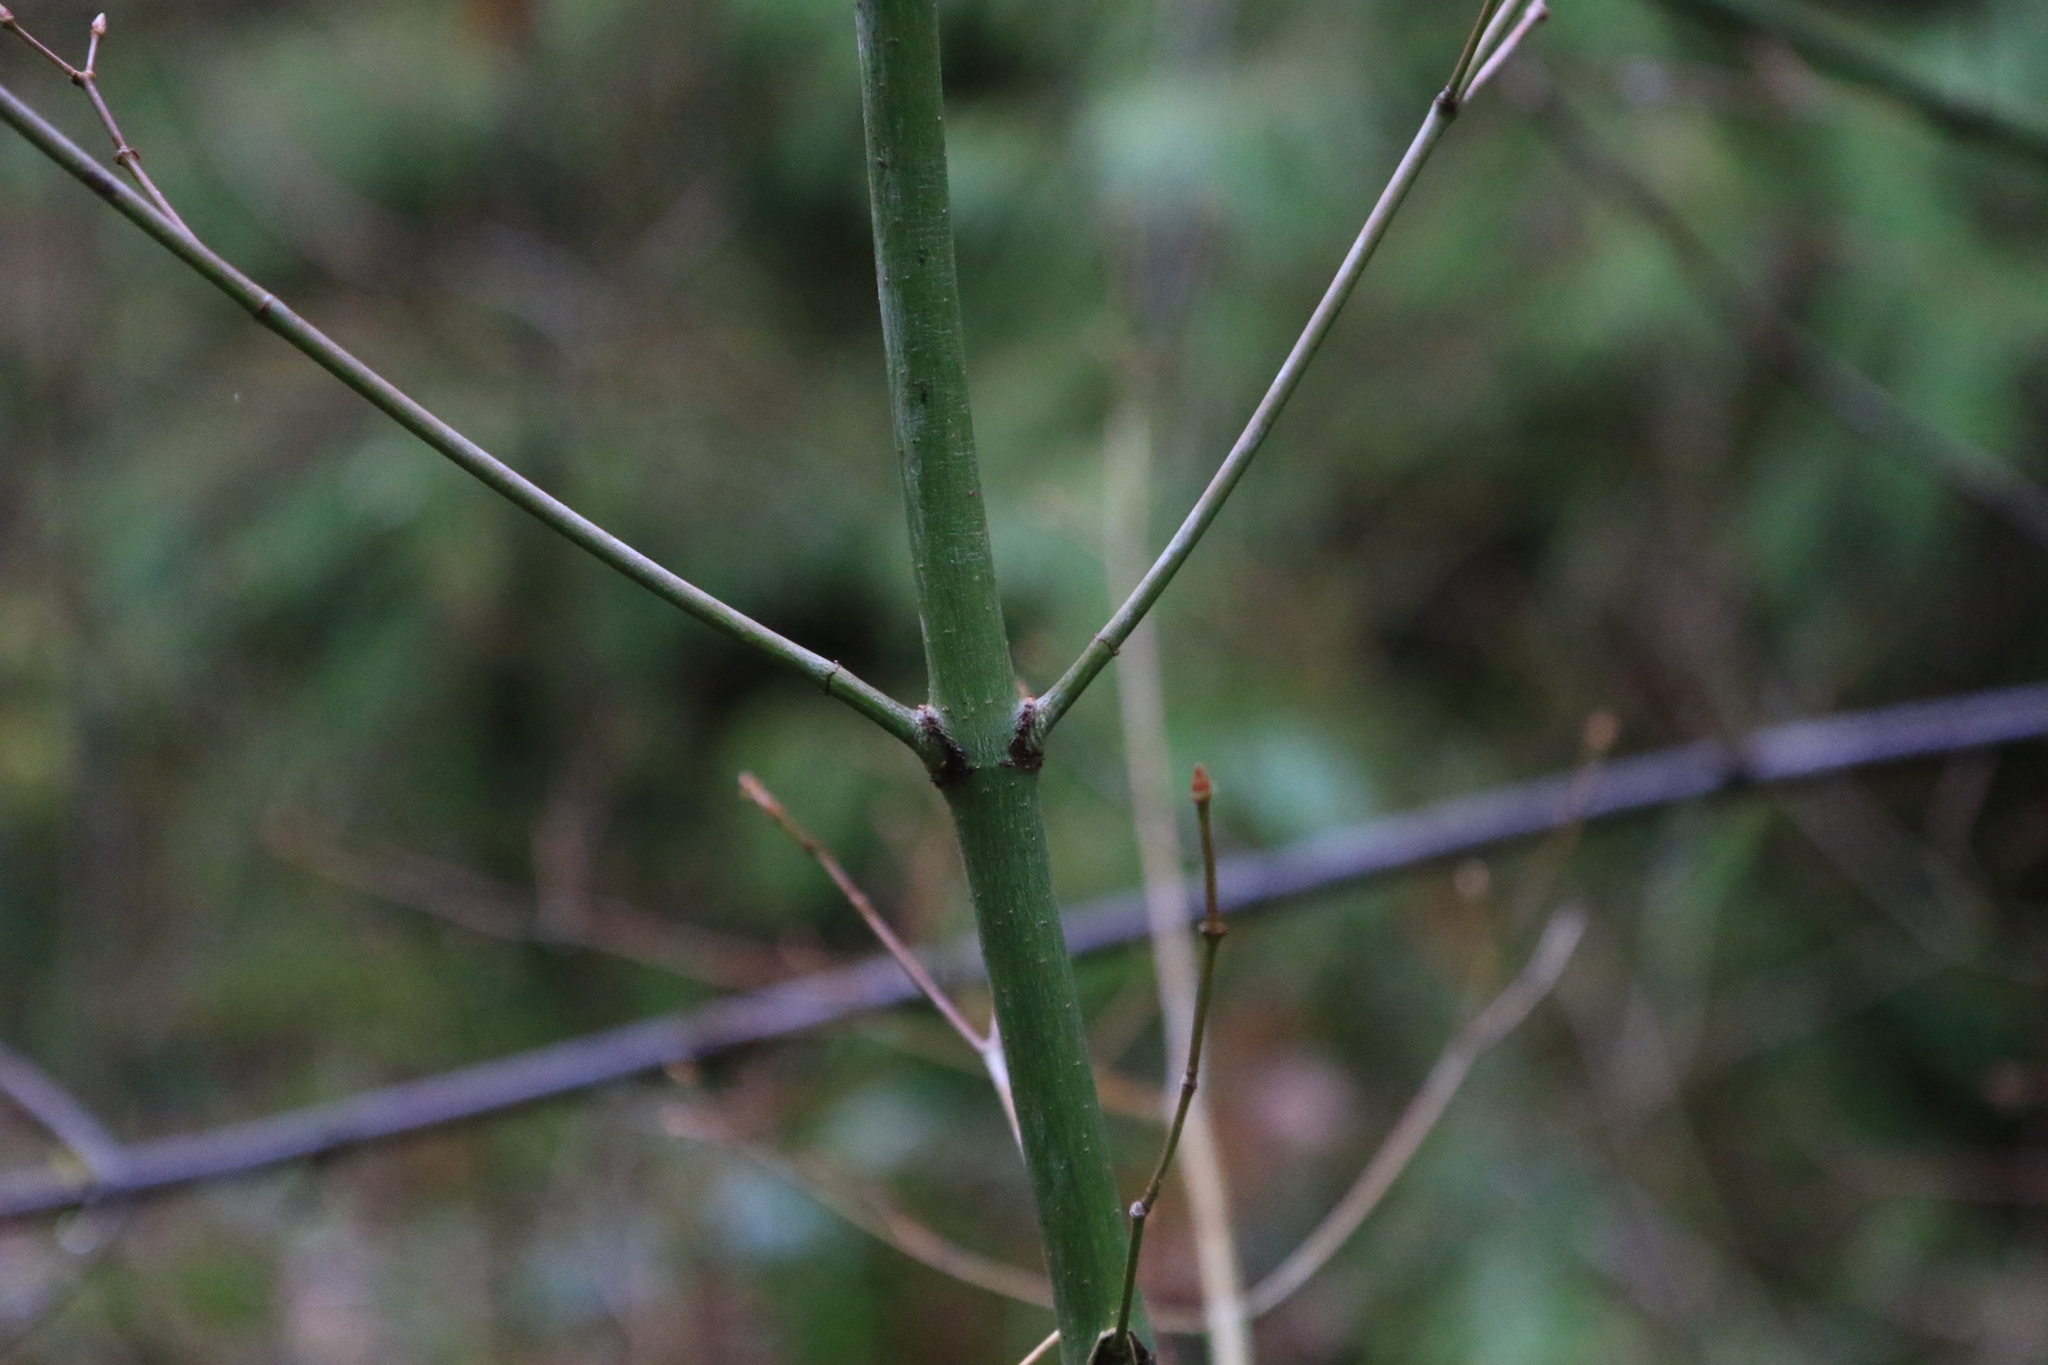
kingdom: Plantae
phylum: Tracheophyta
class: Magnoliopsida
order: Sapindales
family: Sapindaceae
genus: Acer
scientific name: Acer circinatum
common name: Vine maple
